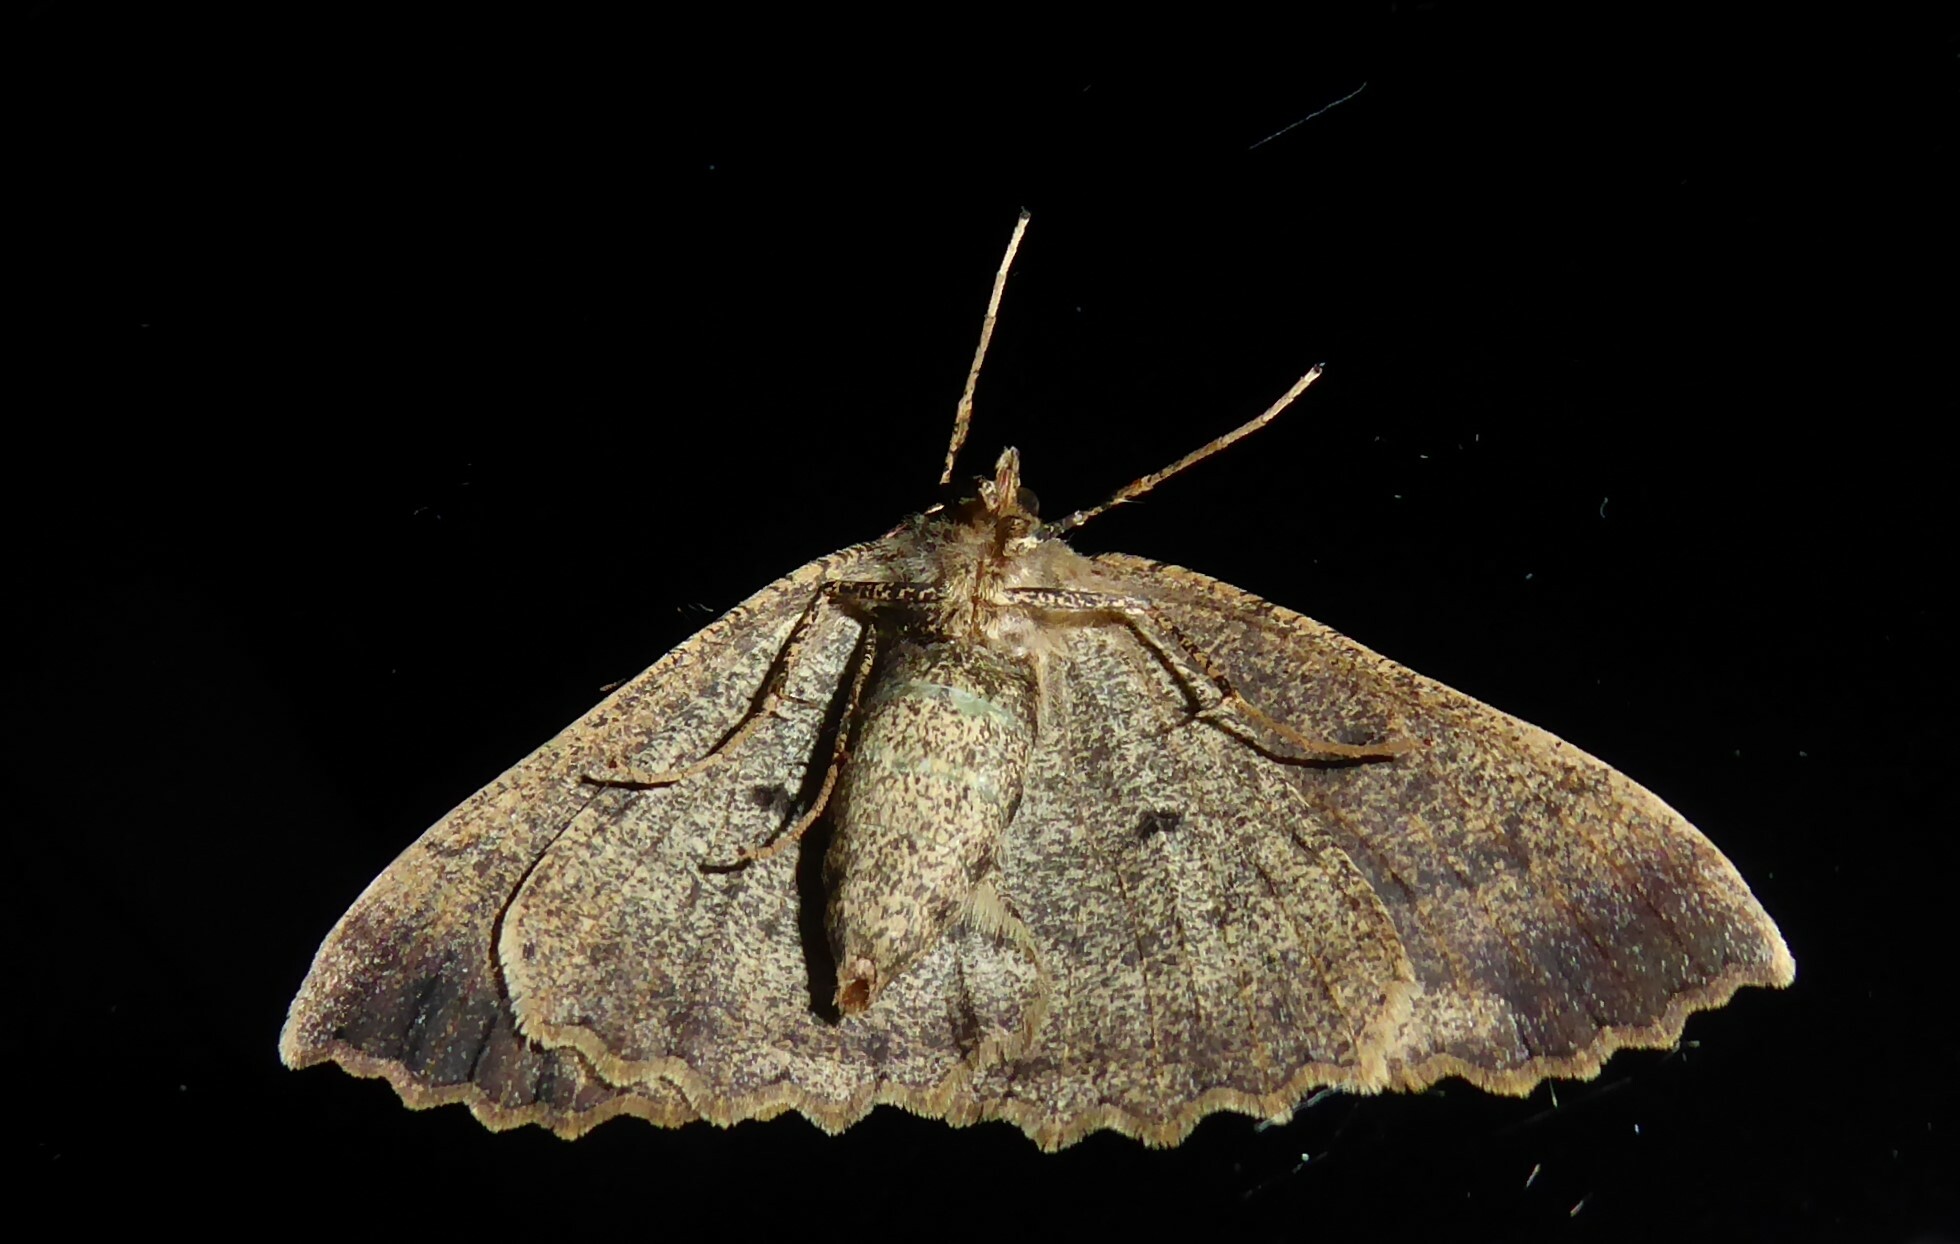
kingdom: Animalia
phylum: Arthropoda
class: Insecta
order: Lepidoptera
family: Geometridae
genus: Cleora
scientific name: Cleora scriptaria
